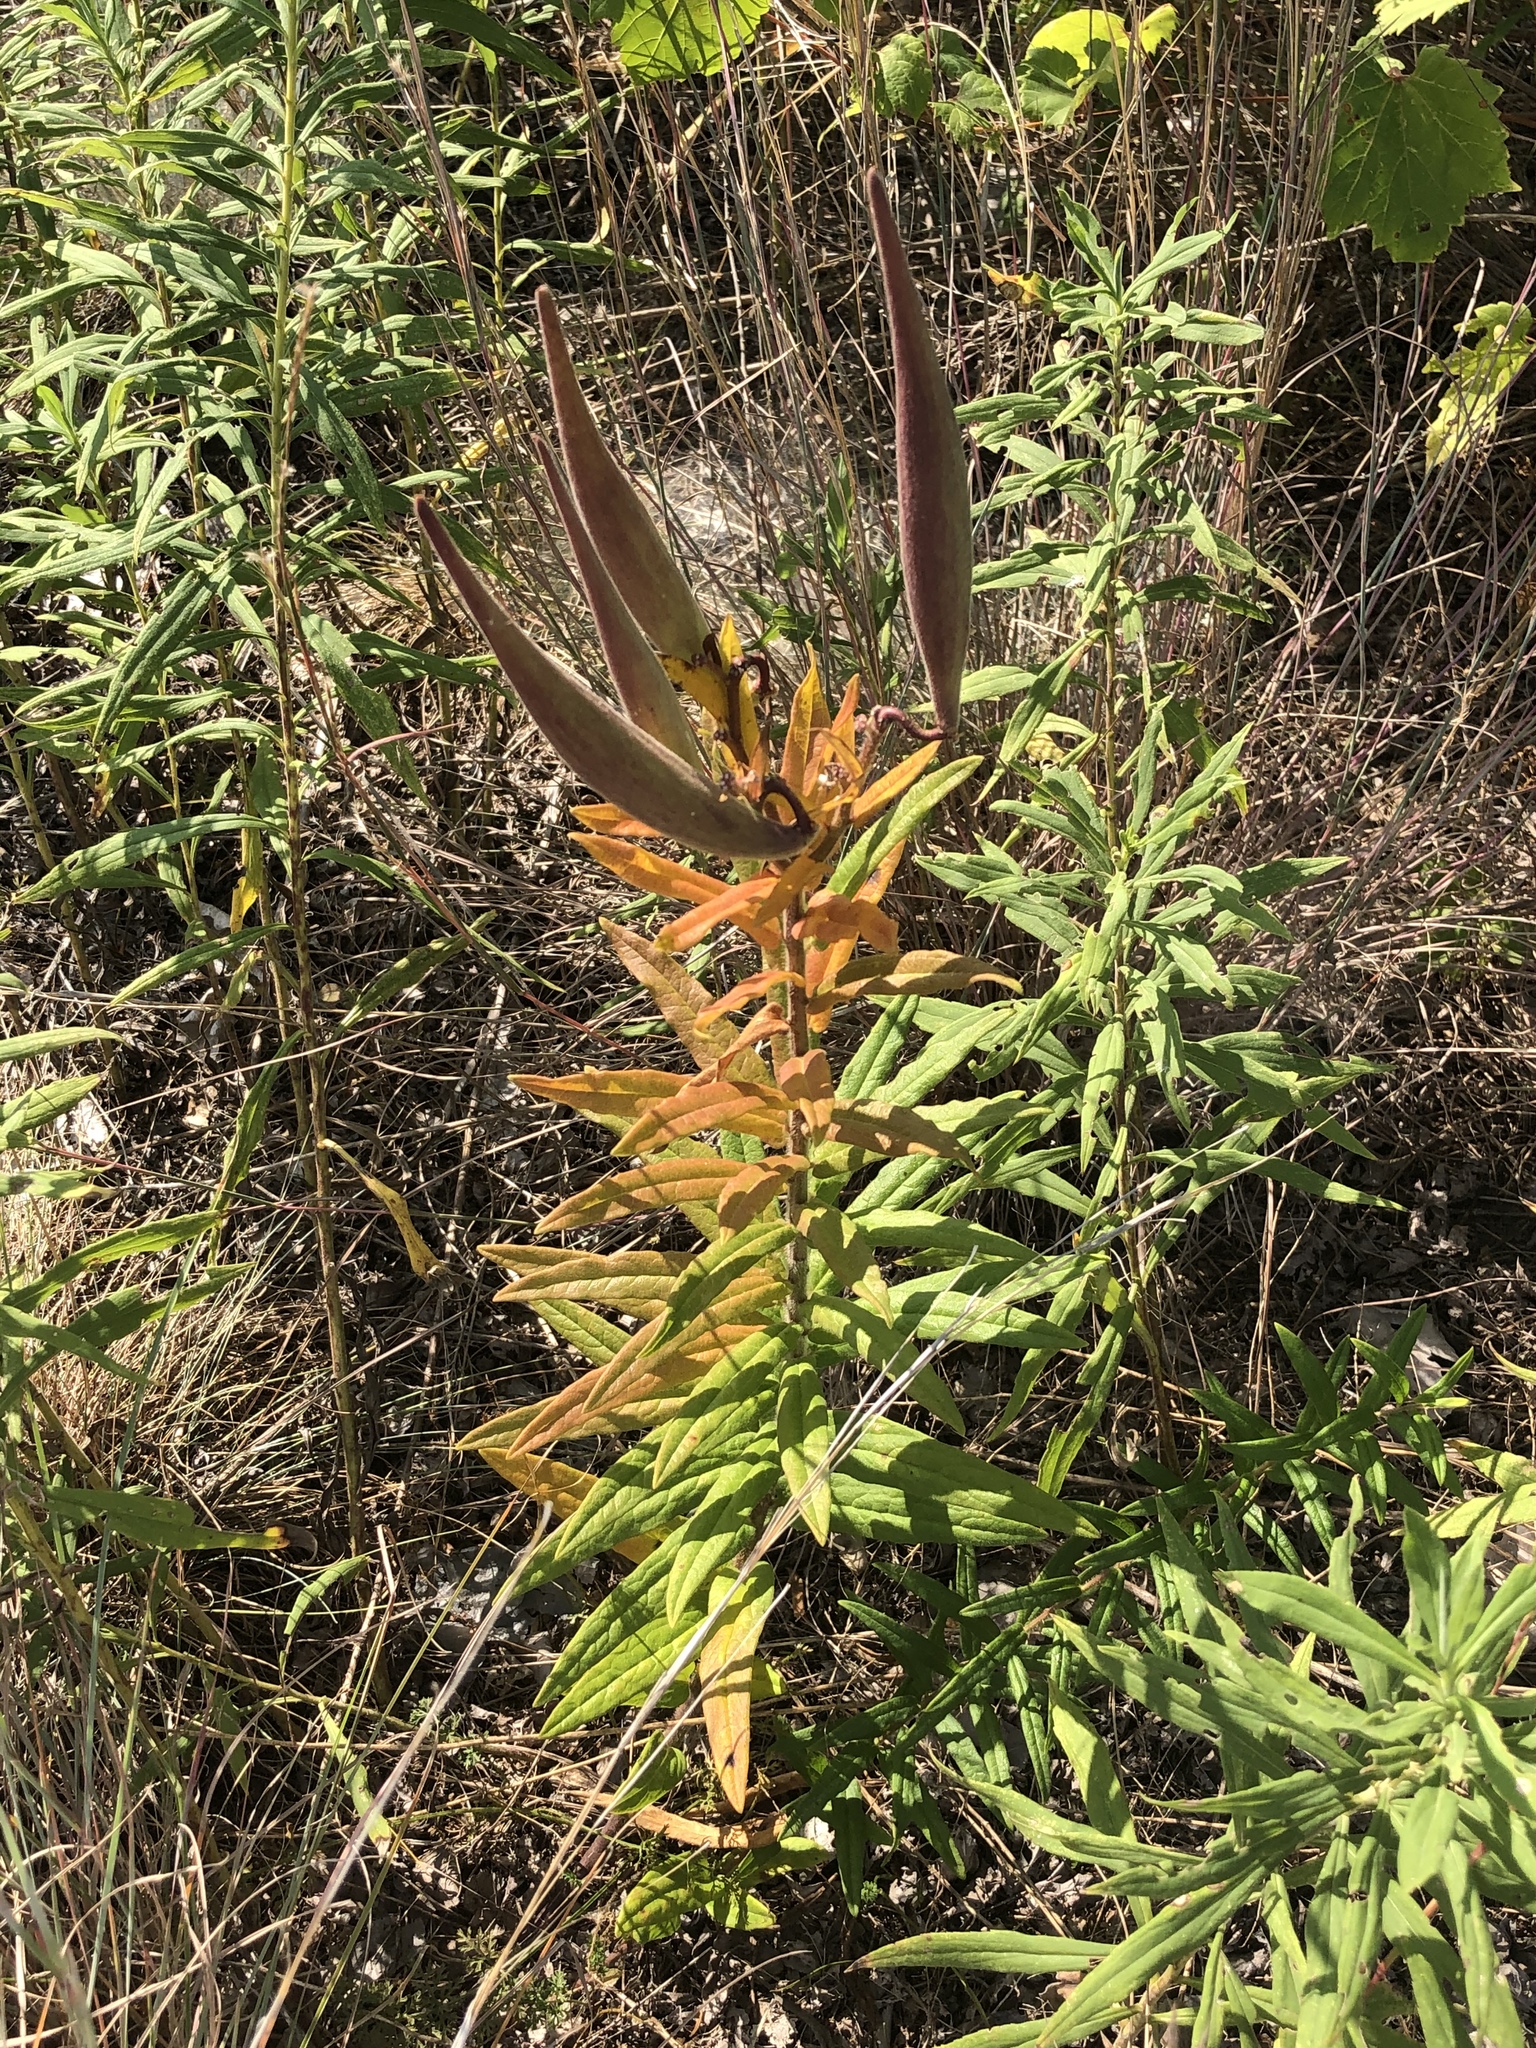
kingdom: Plantae
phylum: Tracheophyta
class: Magnoliopsida
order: Gentianales
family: Apocynaceae
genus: Asclepias
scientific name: Asclepias tuberosa
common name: Butterfly milkweed
